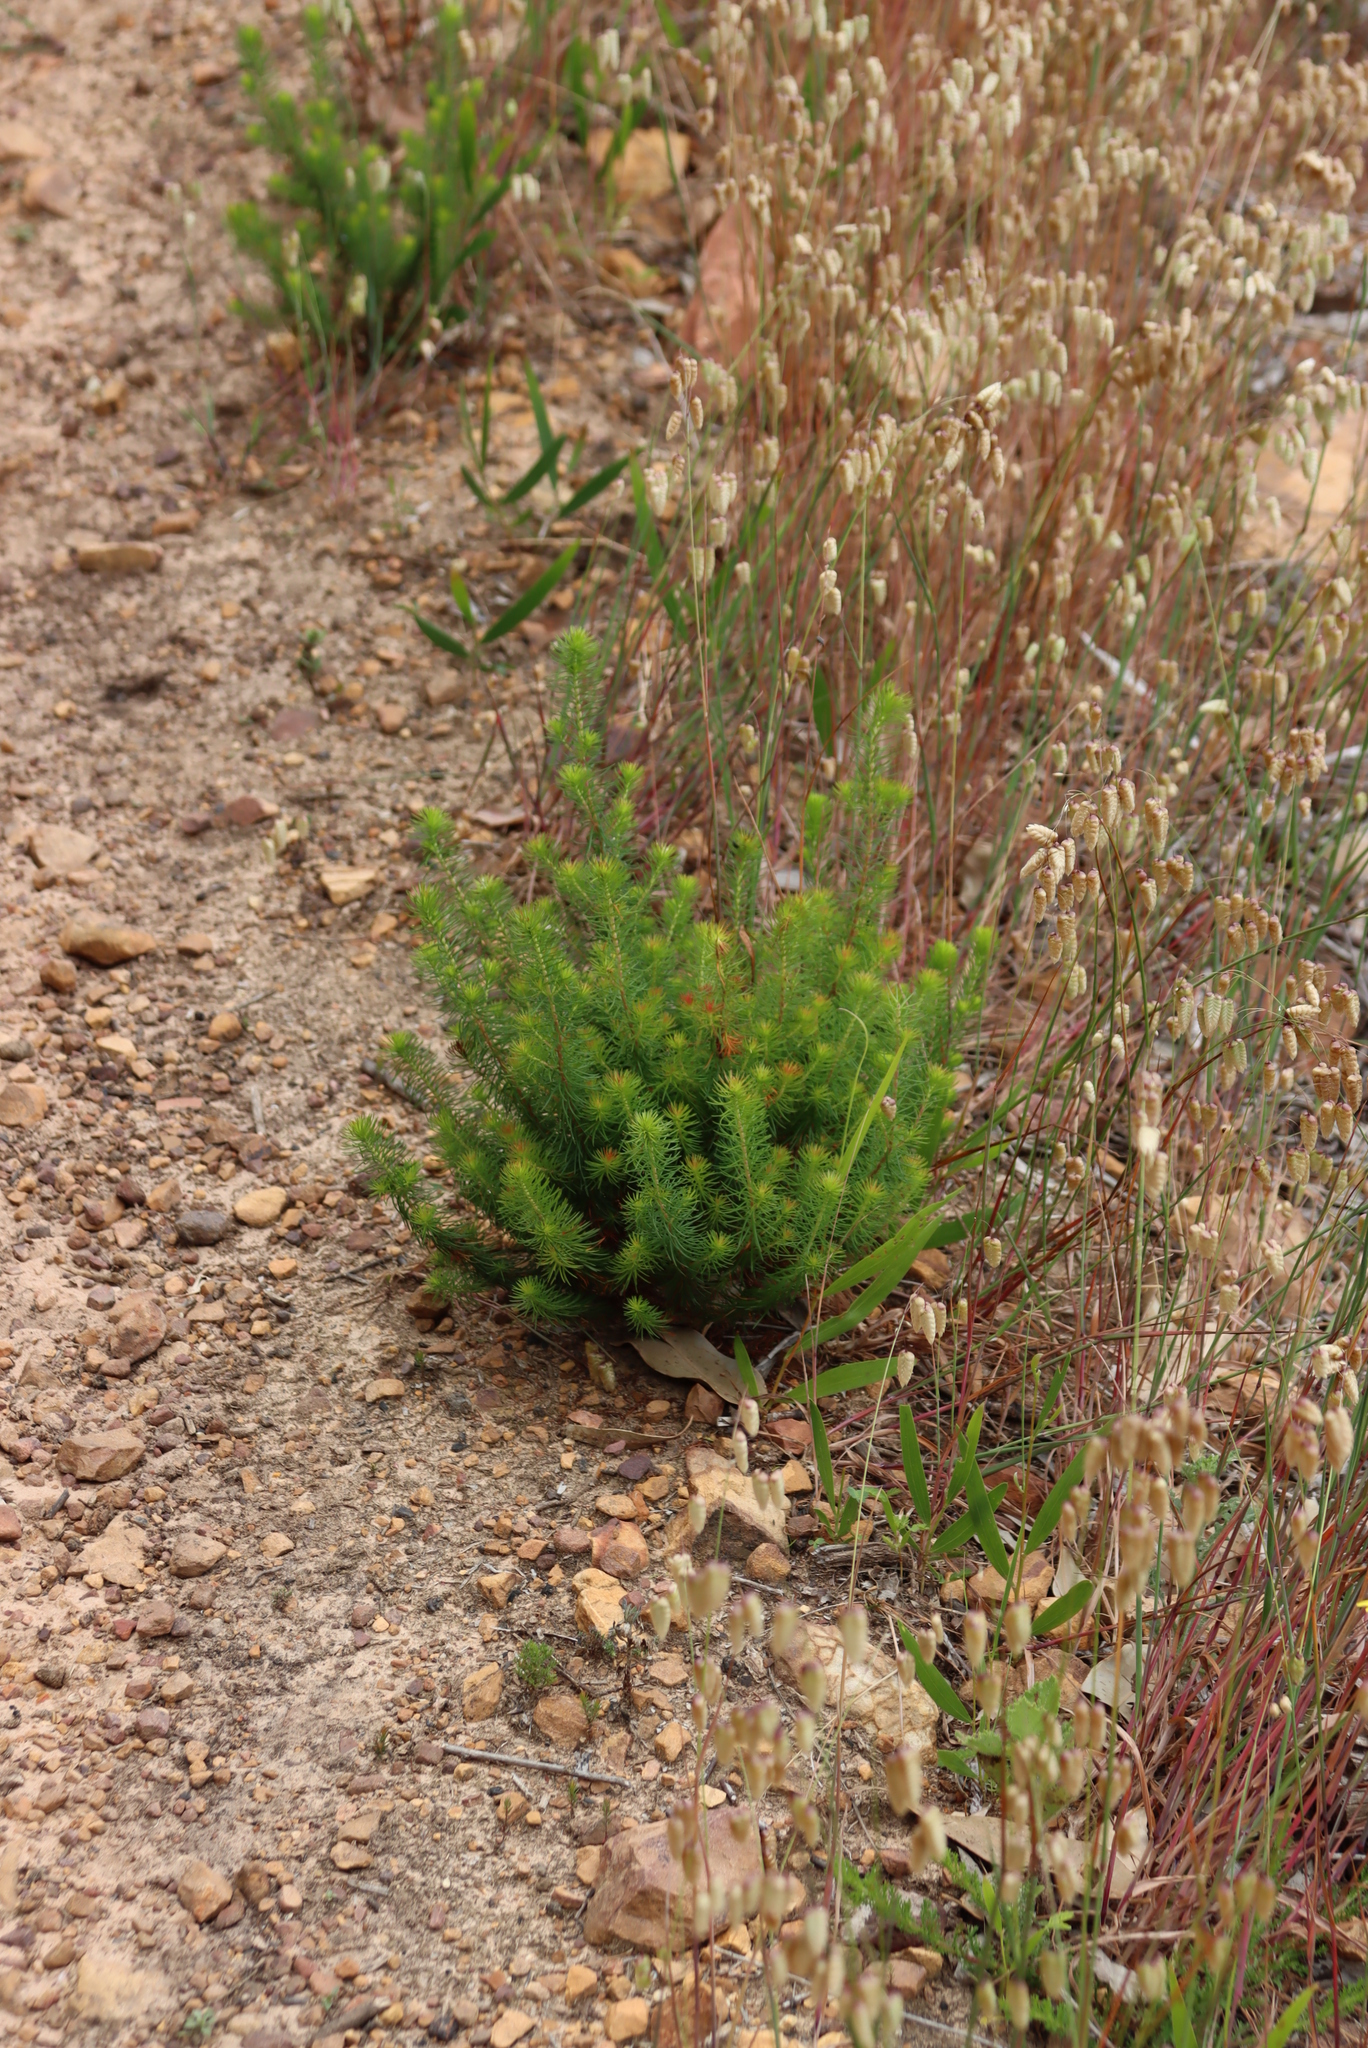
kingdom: Plantae
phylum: Tracheophyta
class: Magnoliopsida
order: Ericales
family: Ericaceae
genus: Erica
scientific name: Erica mammosa
